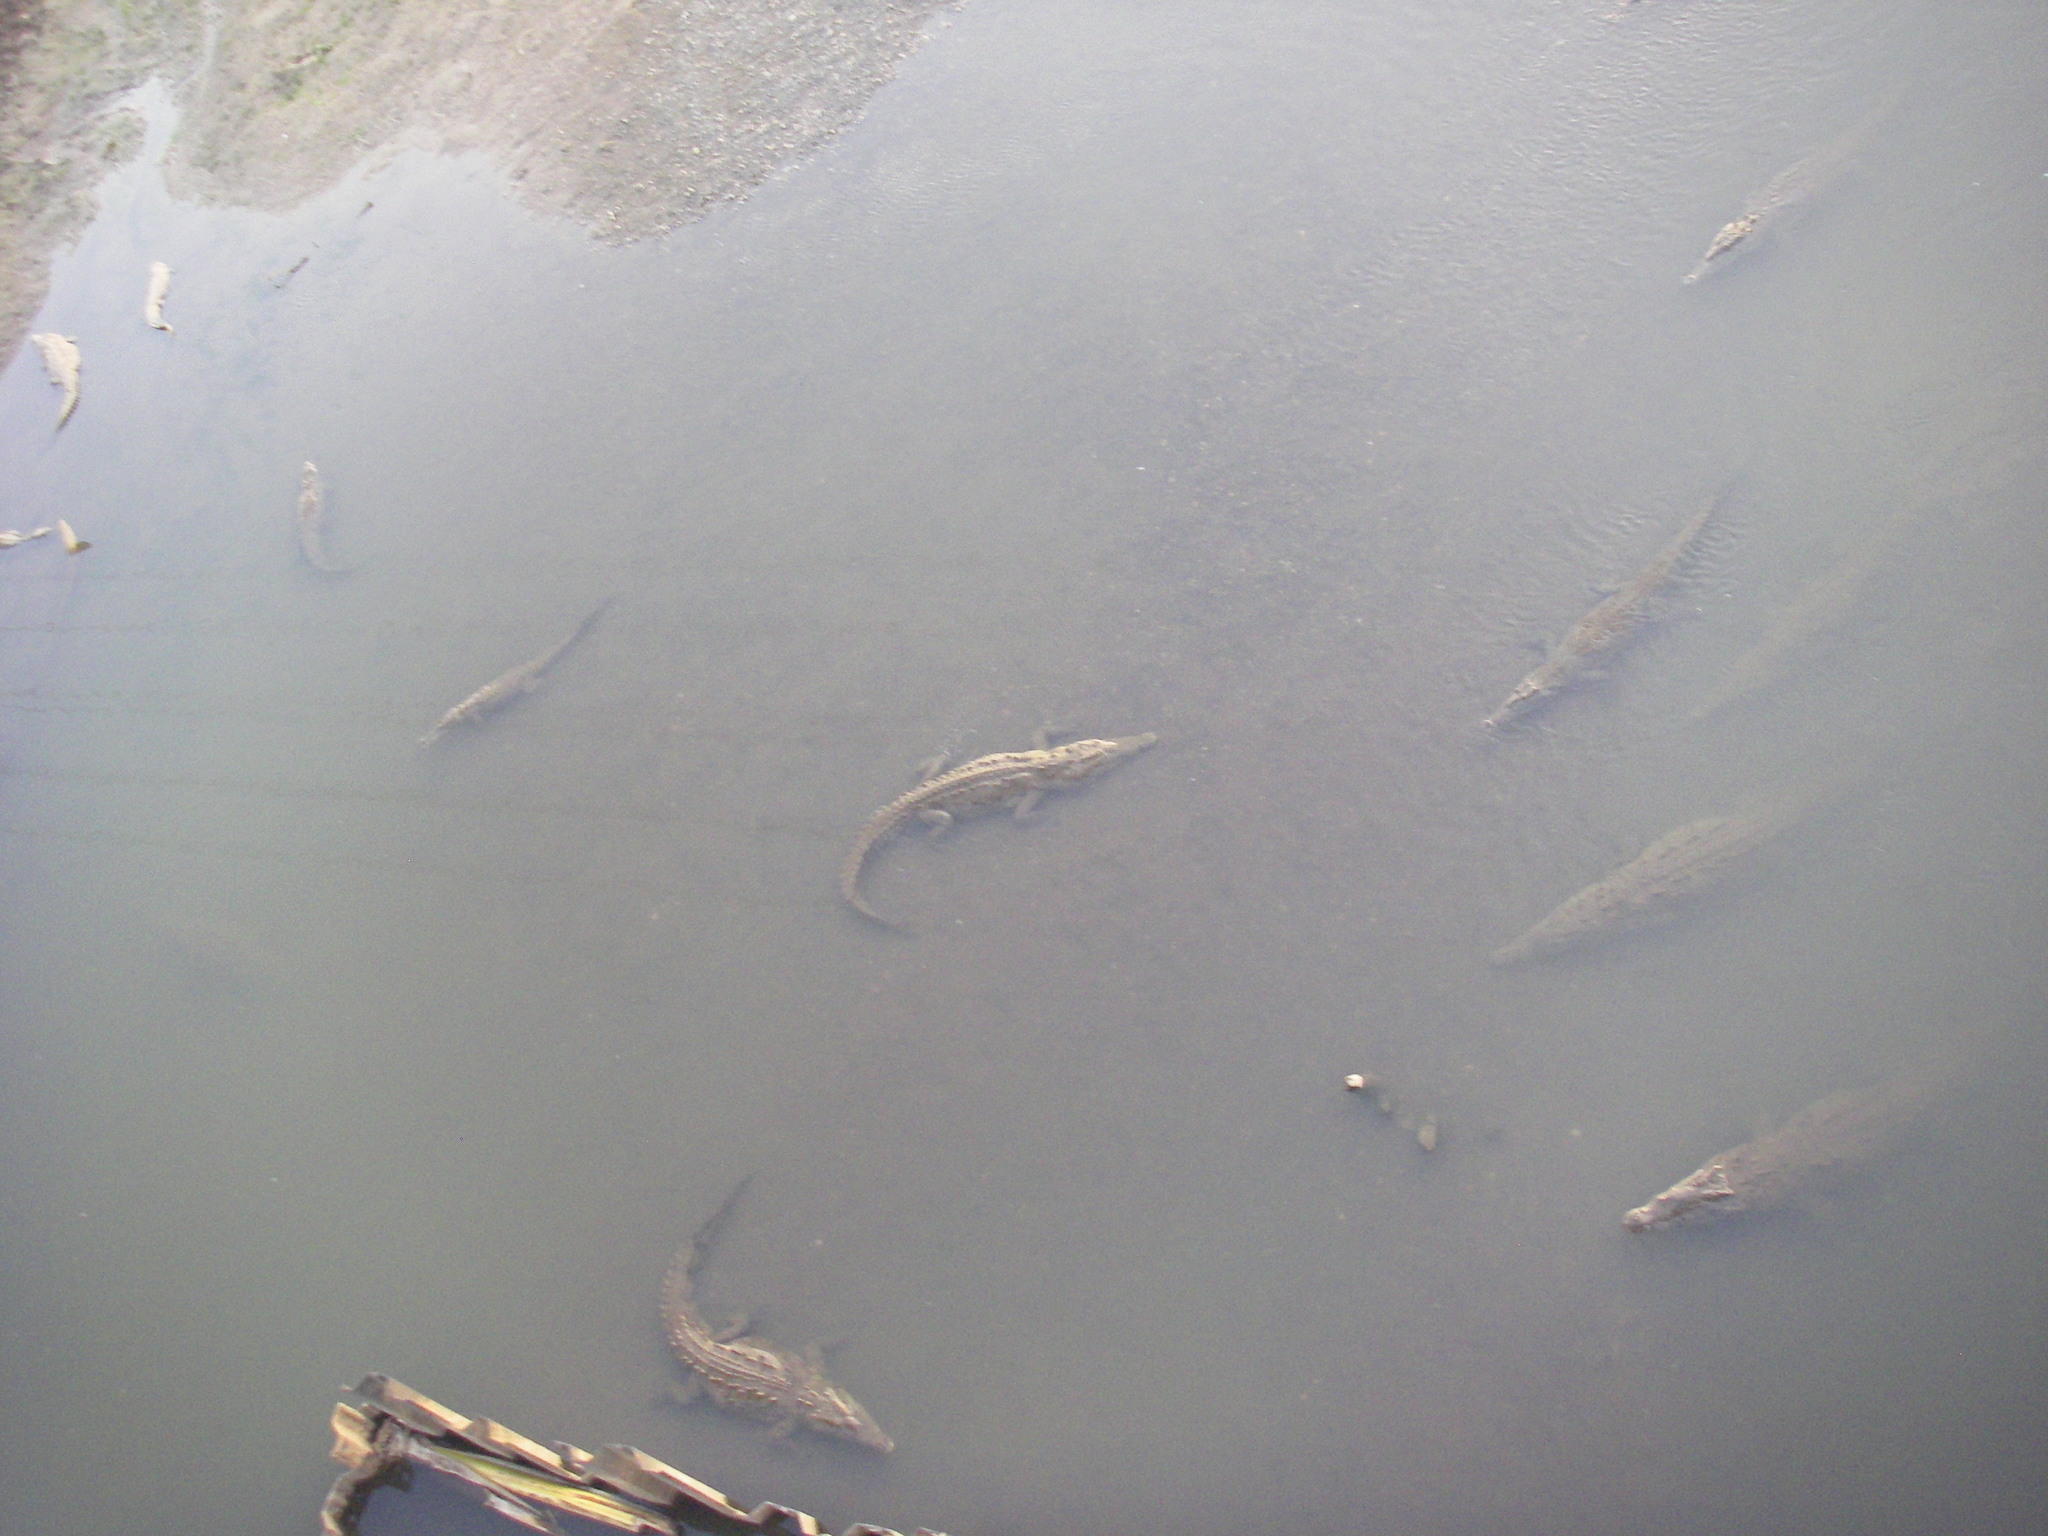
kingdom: Animalia
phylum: Chordata
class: Crocodylia
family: Crocodylidae
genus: Crocodylus
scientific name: Crocodylus acutus
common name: American crocodile
